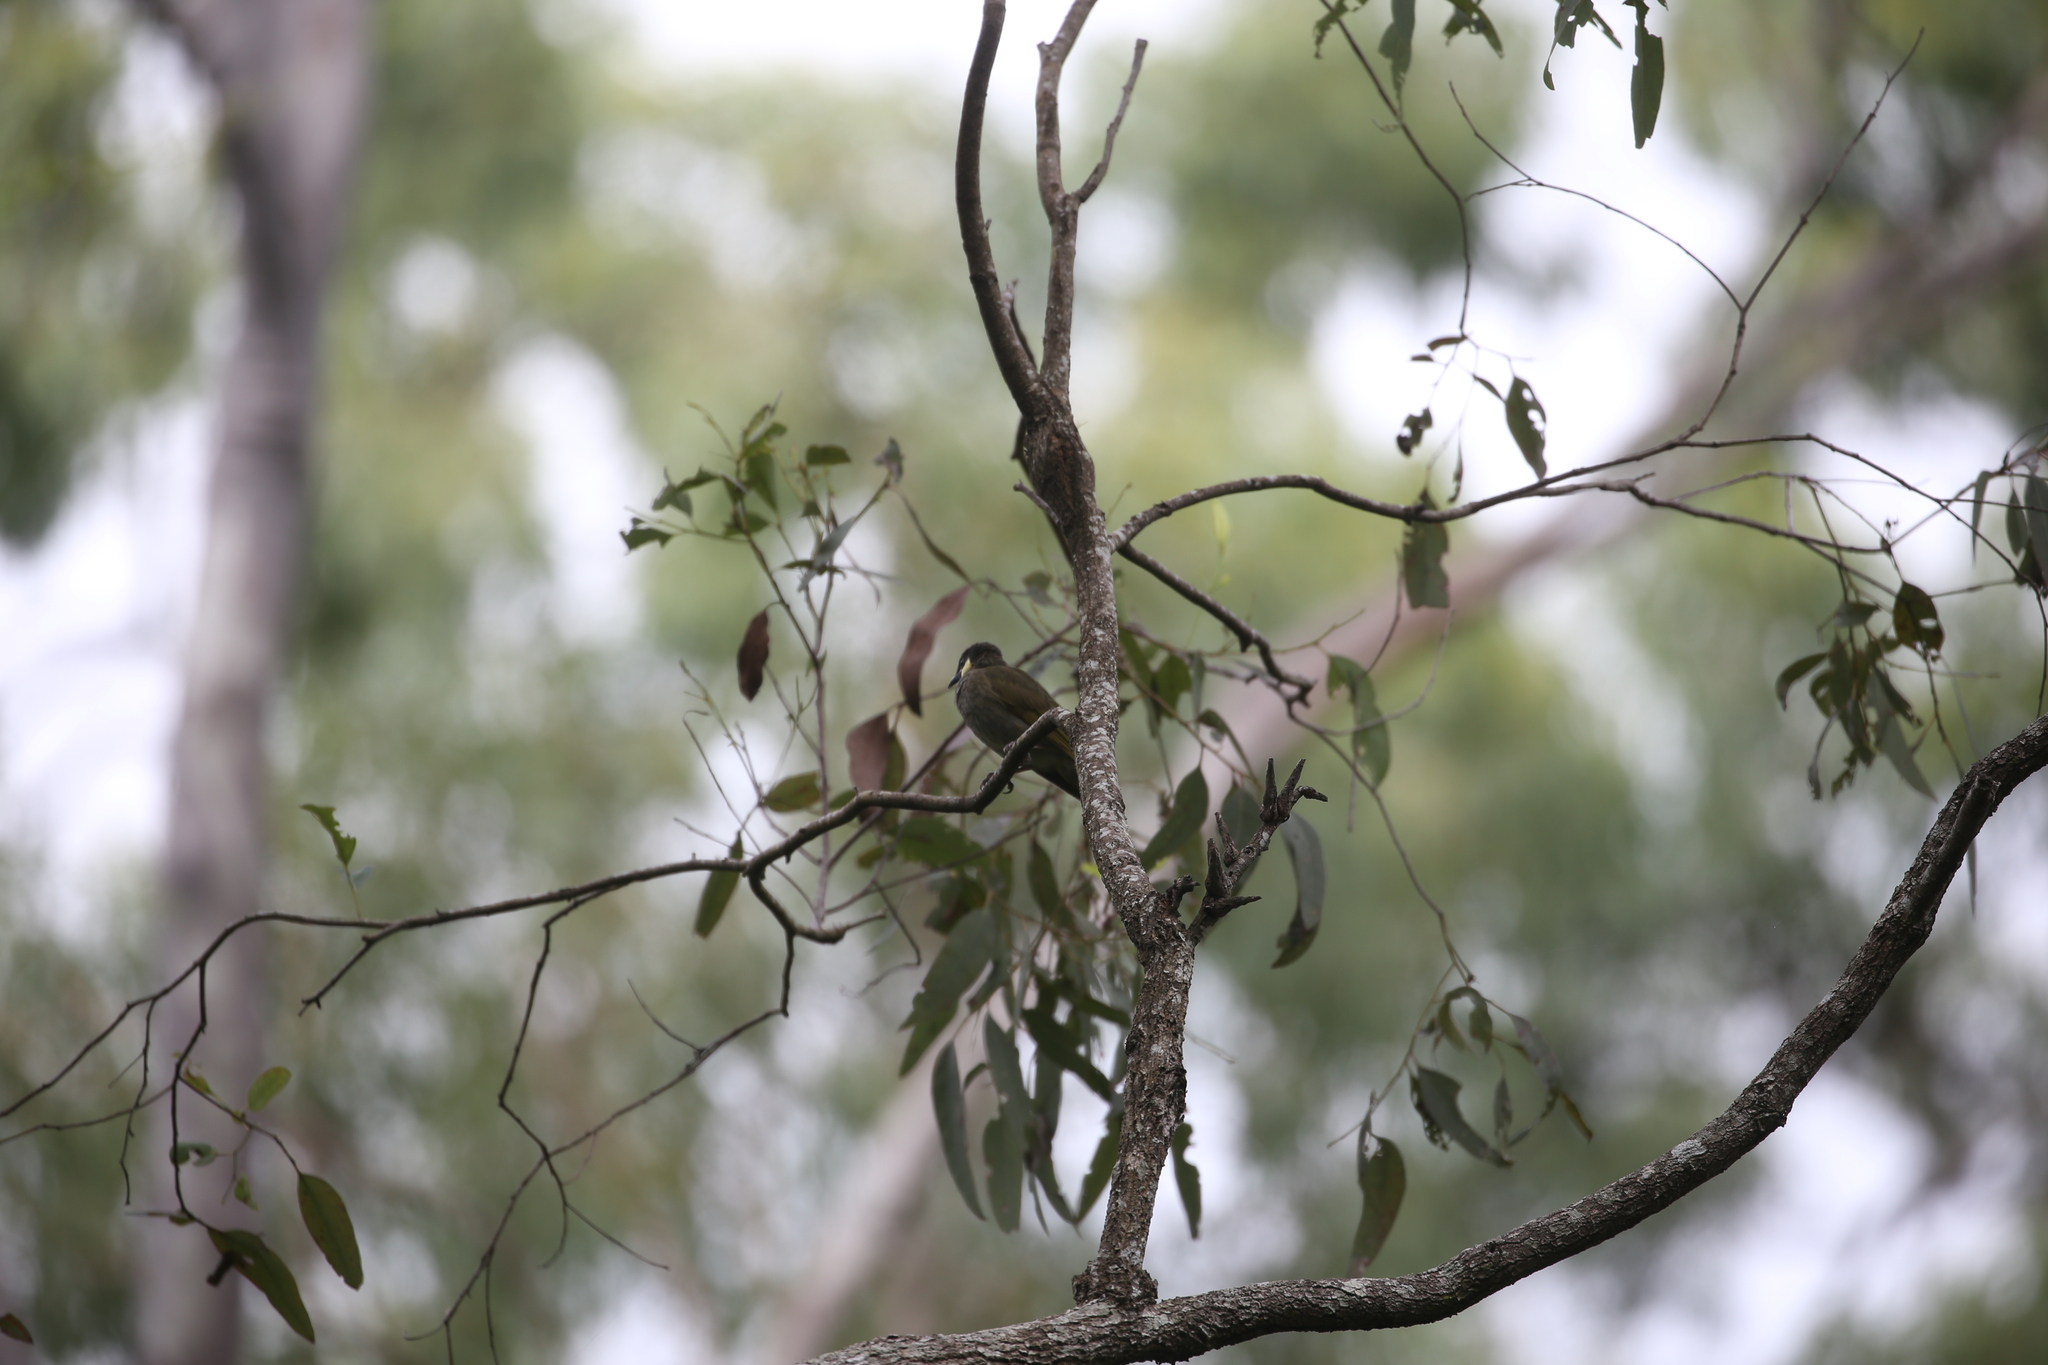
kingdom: Animalia
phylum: Chordata
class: Aves
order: Passeriformes
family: Meliphagidae
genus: Meliphaga
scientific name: Meliphaga lewinii
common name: Lewin's honeyeater
